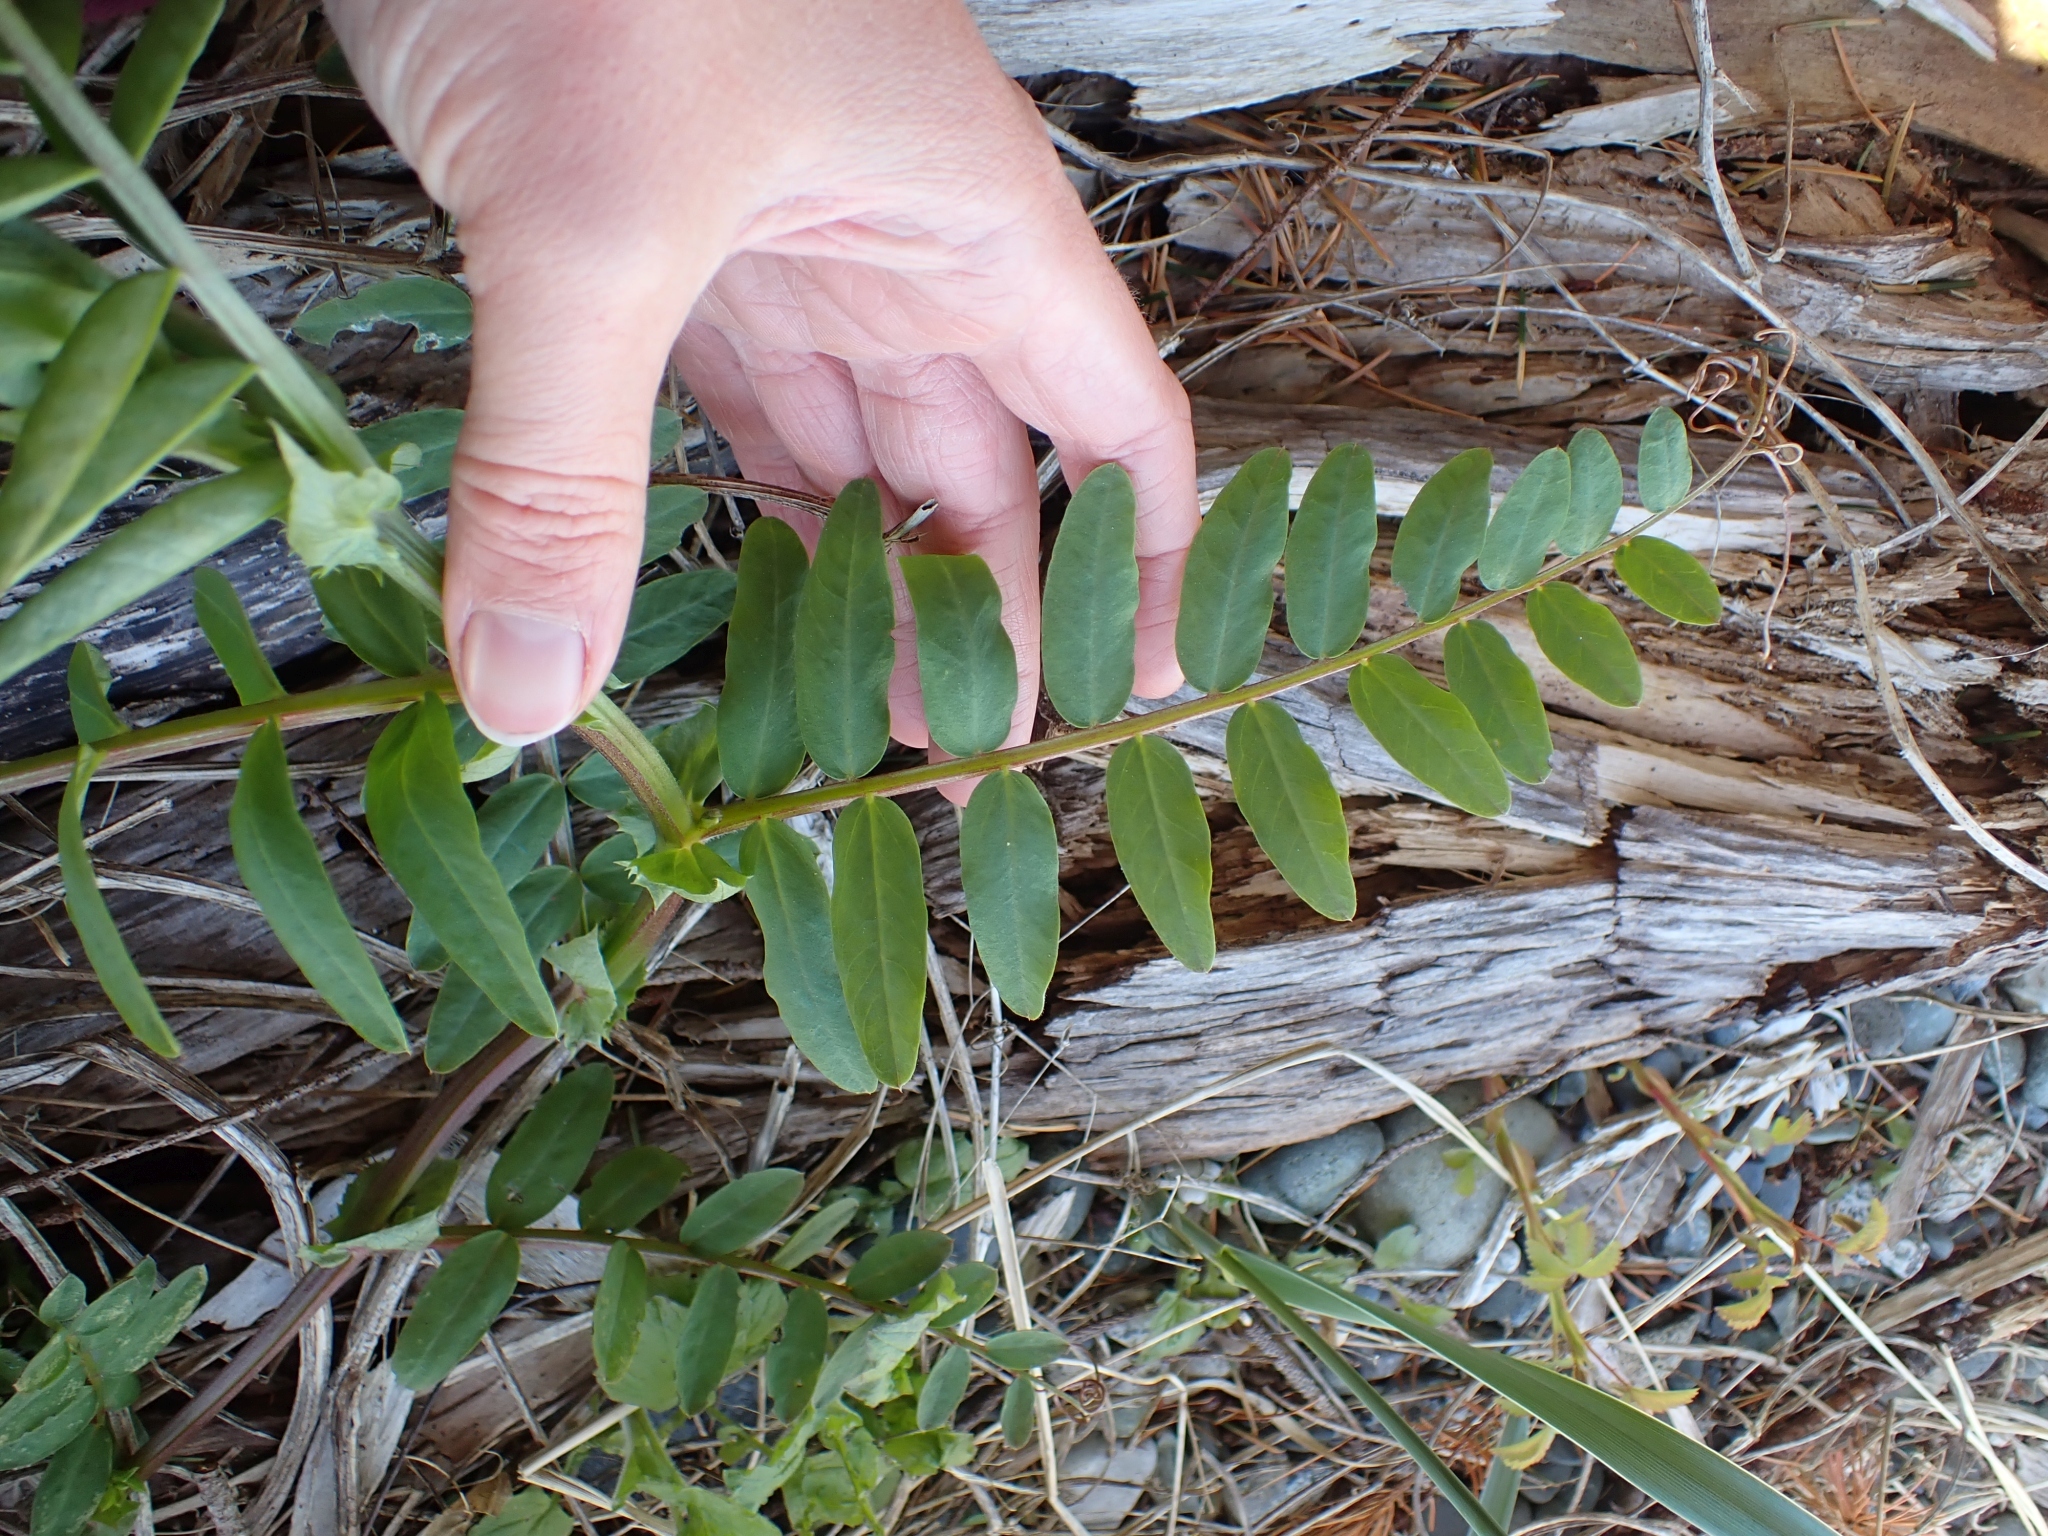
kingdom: Plantae
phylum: Tracheophyta
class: Magnoliopsida
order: Fabales
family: Fabaceae
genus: Vicia
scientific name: Vicia
